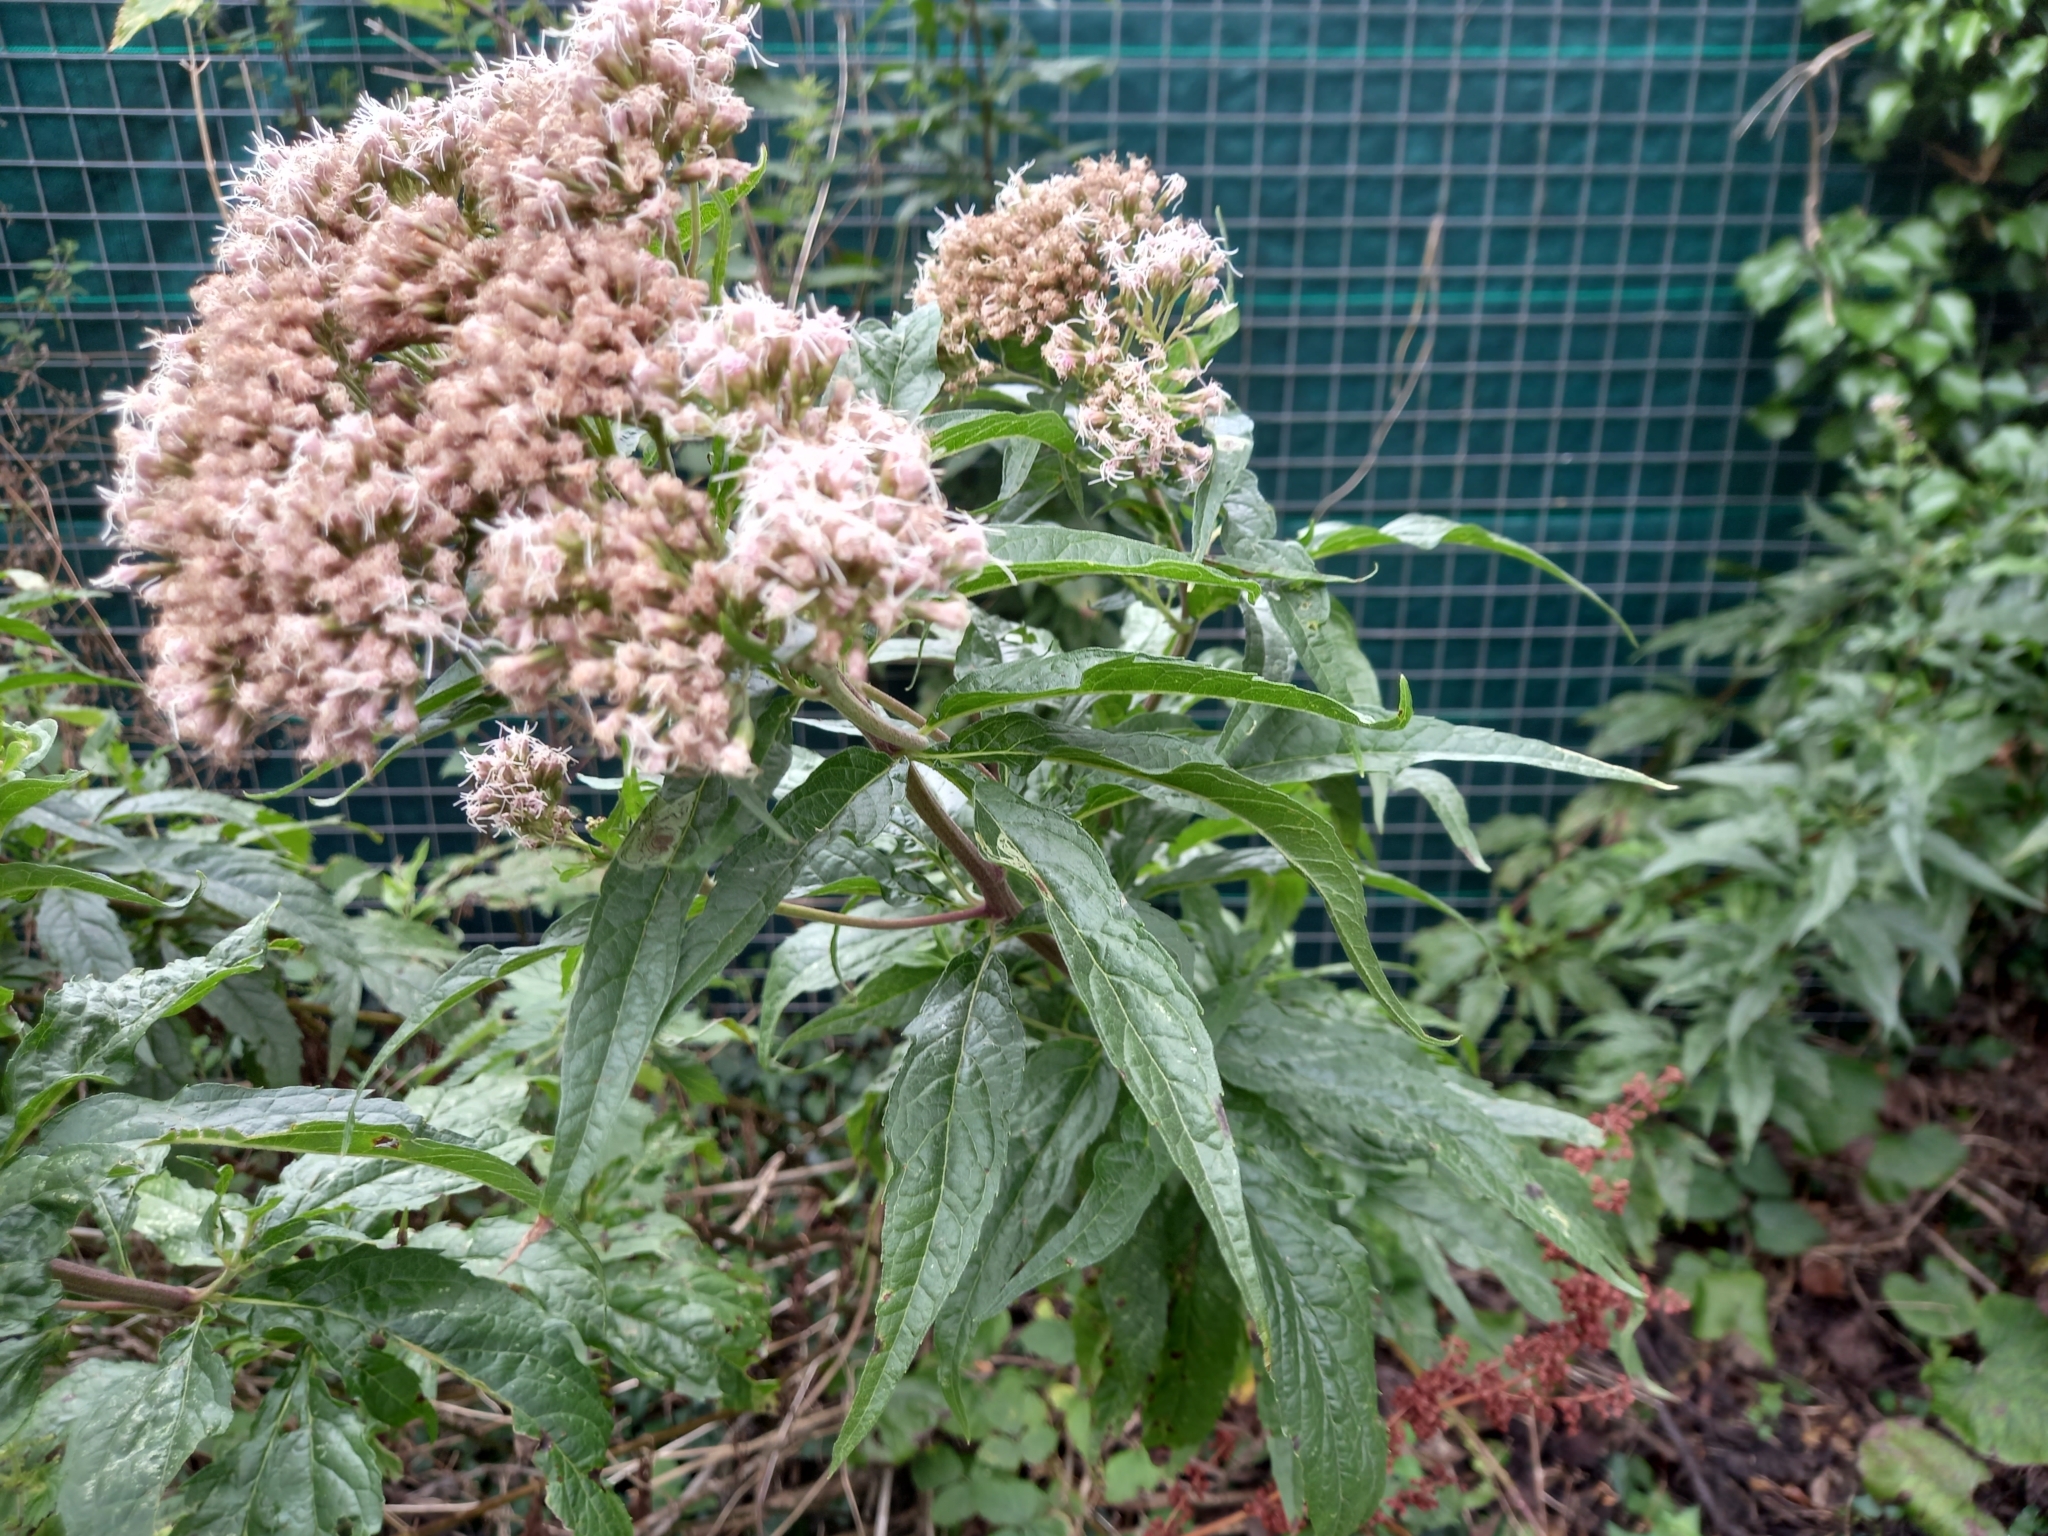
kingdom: Plantae
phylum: Tracheophyta
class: Magnoliopsida
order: Asterales
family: Asteraceae
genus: Eupatorium
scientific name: Eupatorium cannabinum
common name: Hemp-agrimony
